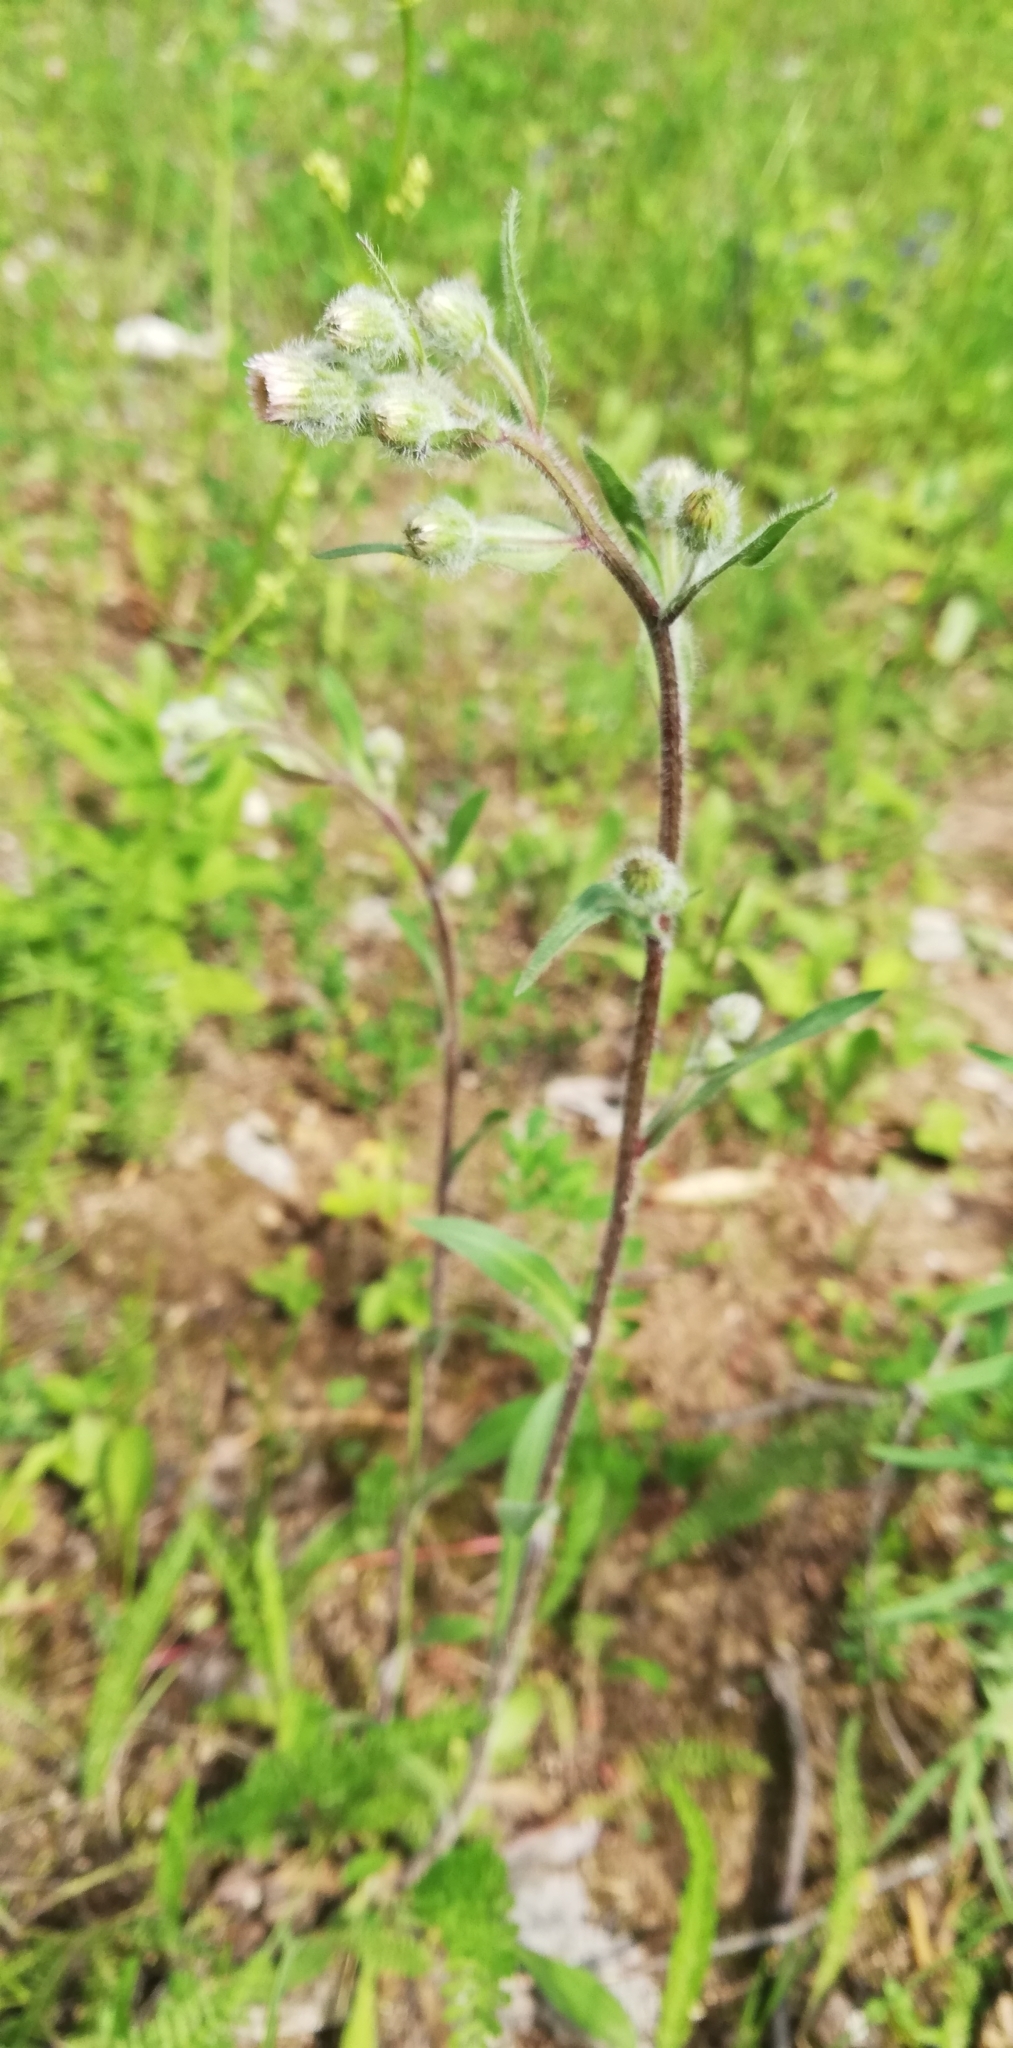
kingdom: Plantae
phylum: Tracheophyta
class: Magnoliopsida
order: Asterales
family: Asteraceae
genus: Erigeron
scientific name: Erigeron acris
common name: Blue fleabane
